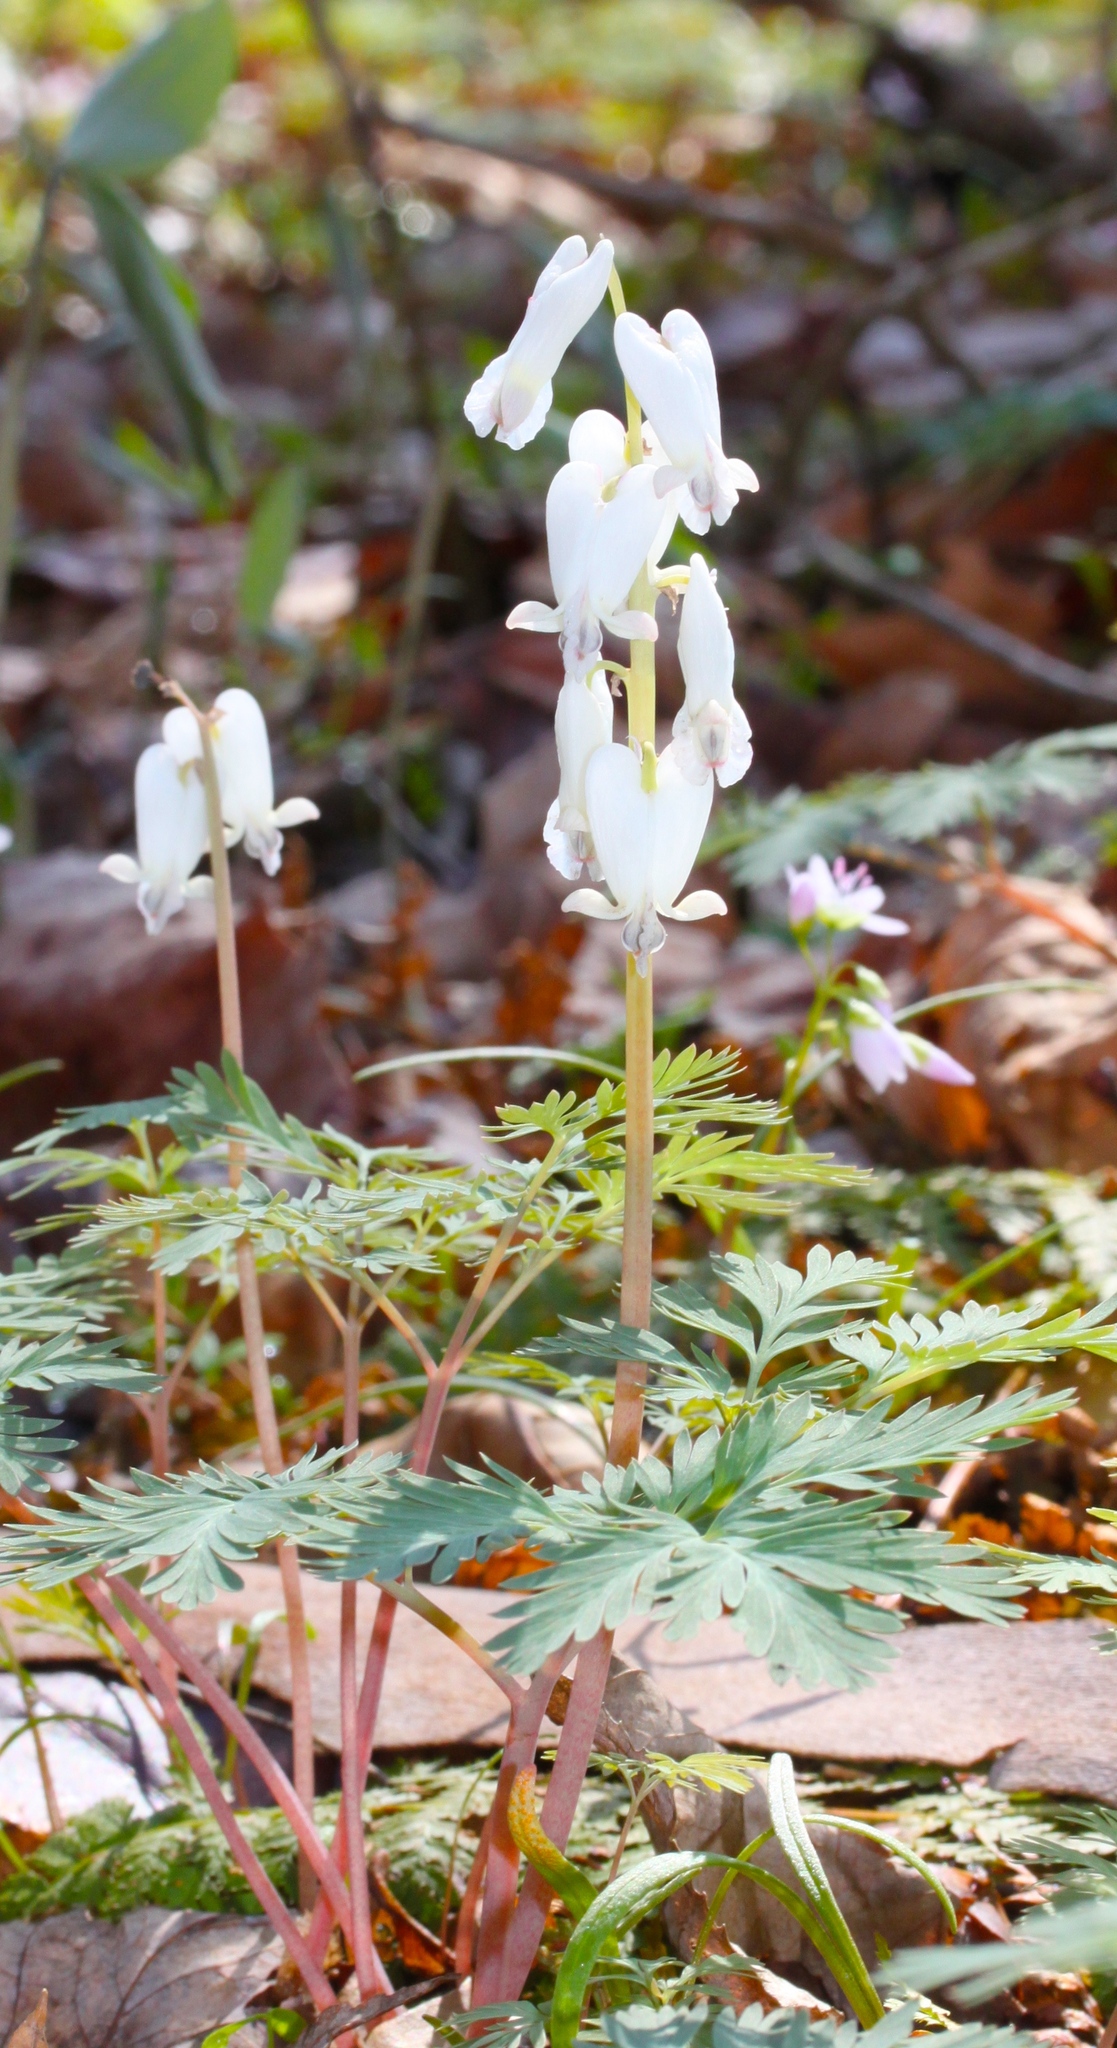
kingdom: Plantae
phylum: Tracheophyta
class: Magnoliopsida
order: Ranunculales
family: Papaveraceae
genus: Dicentra
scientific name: Dicentra canadensis
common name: Squirrel-corn
